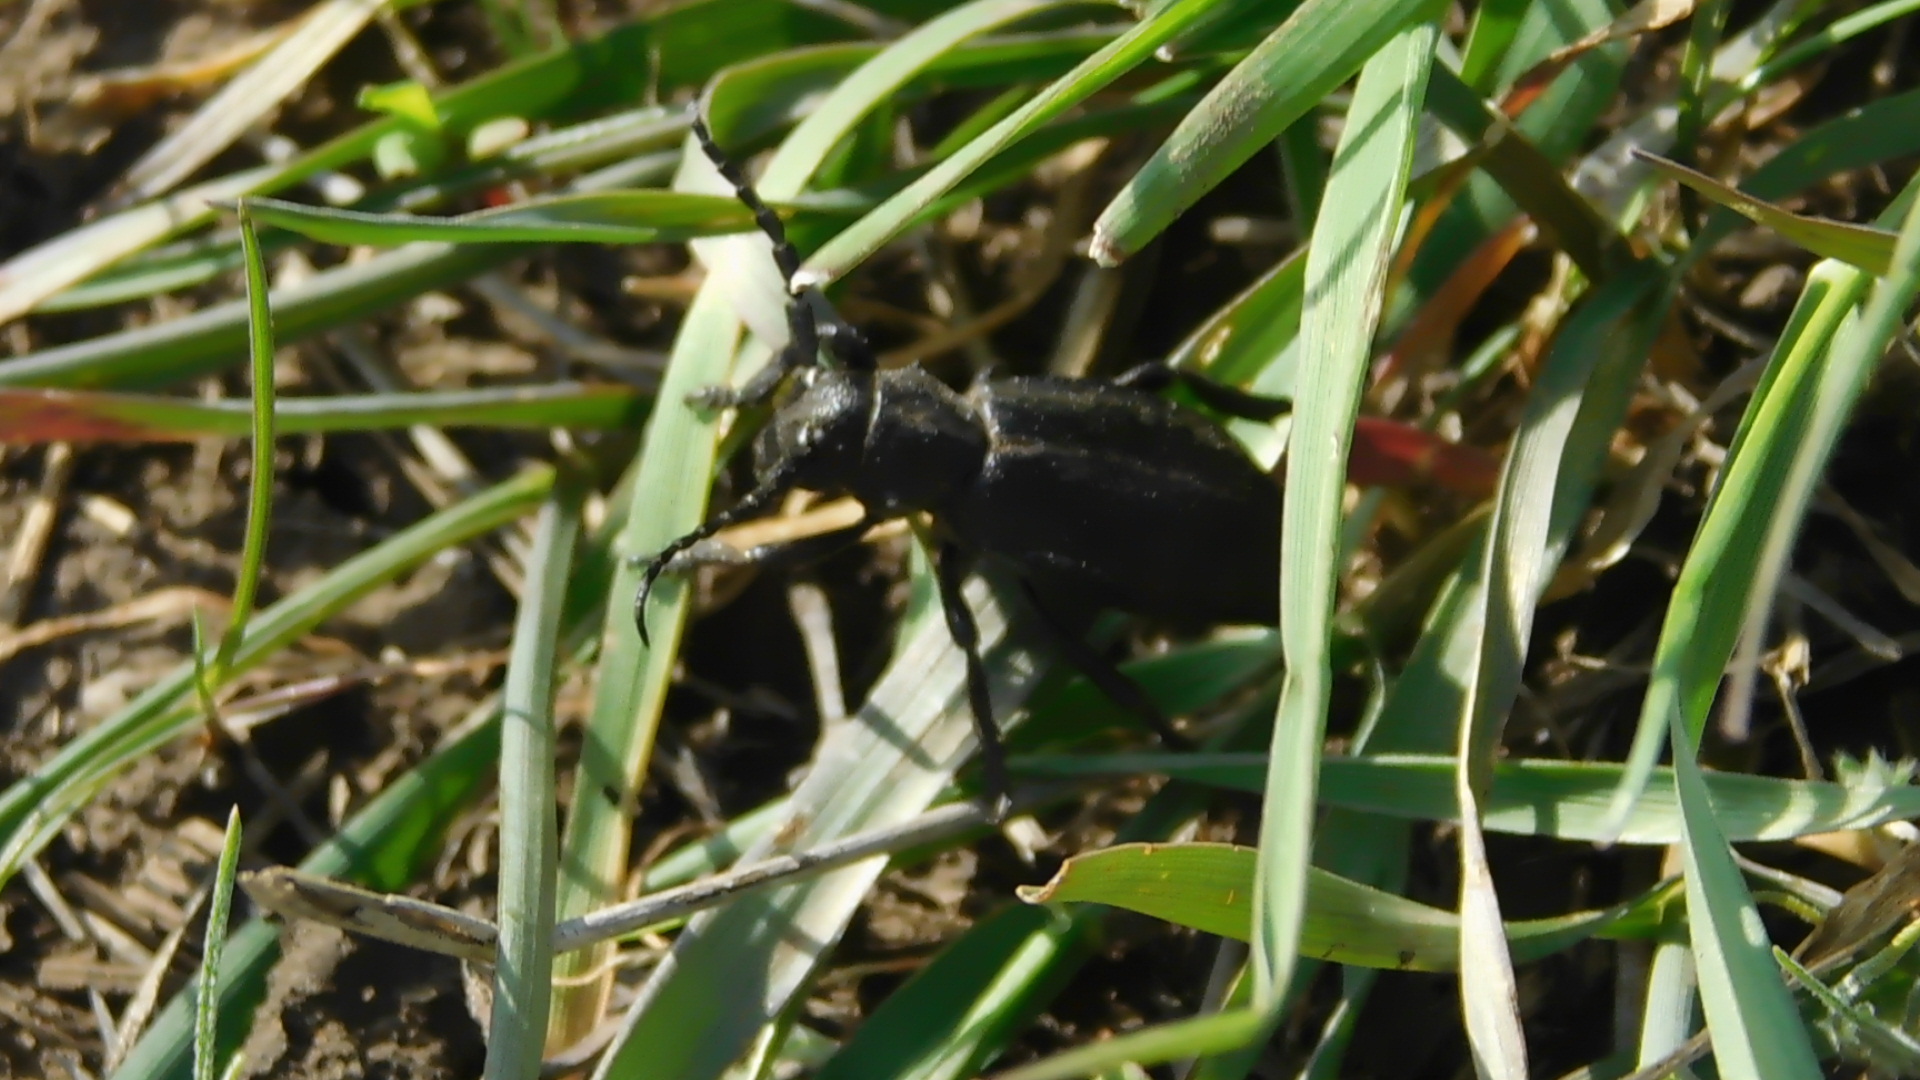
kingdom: Animalia
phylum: Arthropoda
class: Insecta
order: Coleoptera
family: Cerambycidae
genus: Dorcadion
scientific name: Dorcadion carinatum
